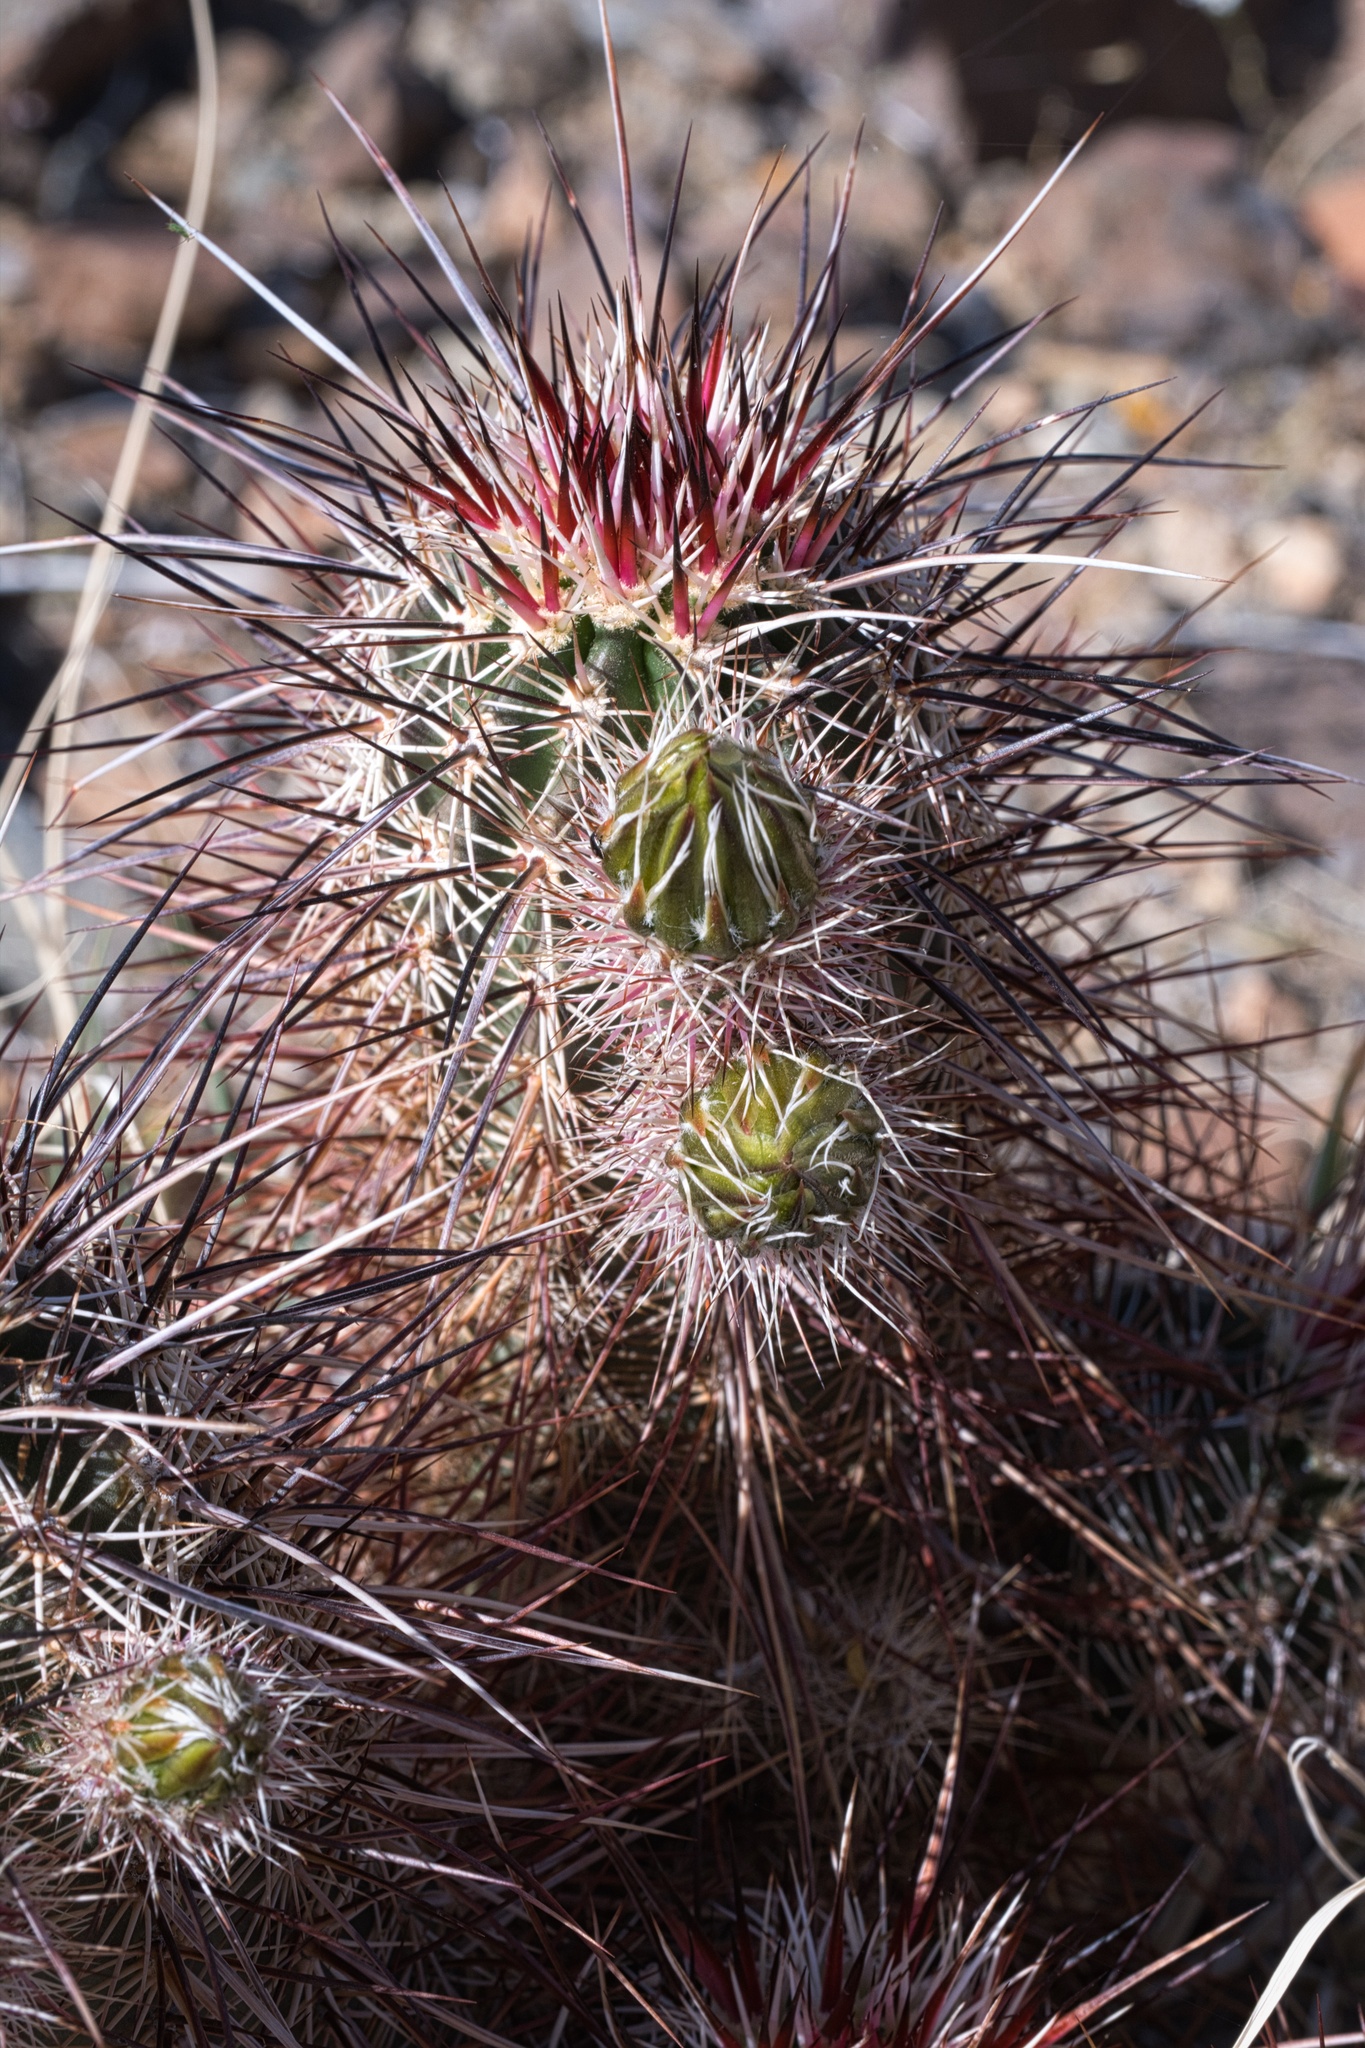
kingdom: Plantae
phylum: Tracheophyta
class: Magnoliopsida
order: Caryophyllales
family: Cactaceae
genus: Echinocereus
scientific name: Echinocereus engelmannii
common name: Engelmann's hedgehog cactus
